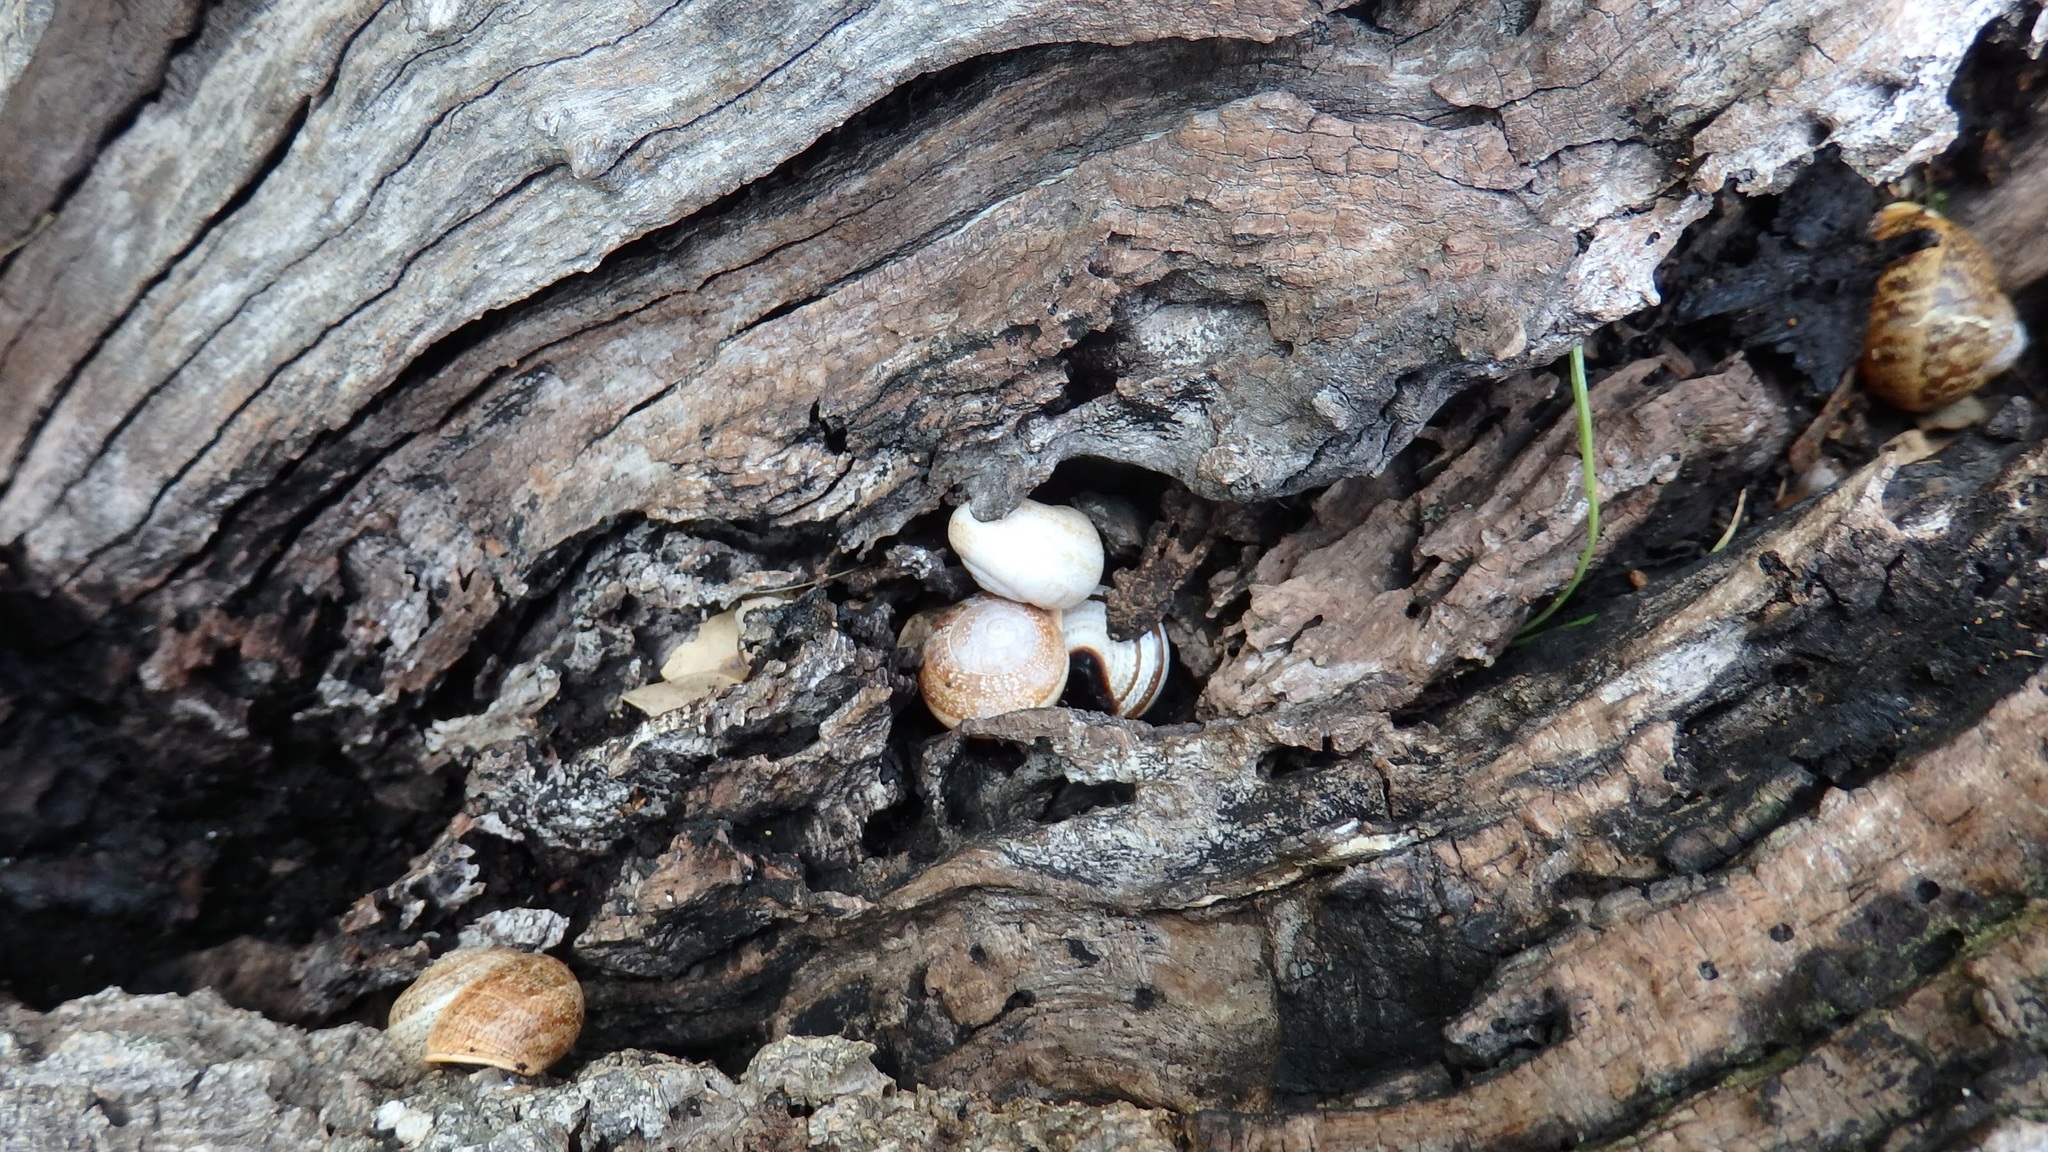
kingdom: Animalia
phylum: Mollusca
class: Gastropoda
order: Stylommatophora
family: Helicidae
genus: Cornu
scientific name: Cornu aspersum
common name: Brown garden snail
